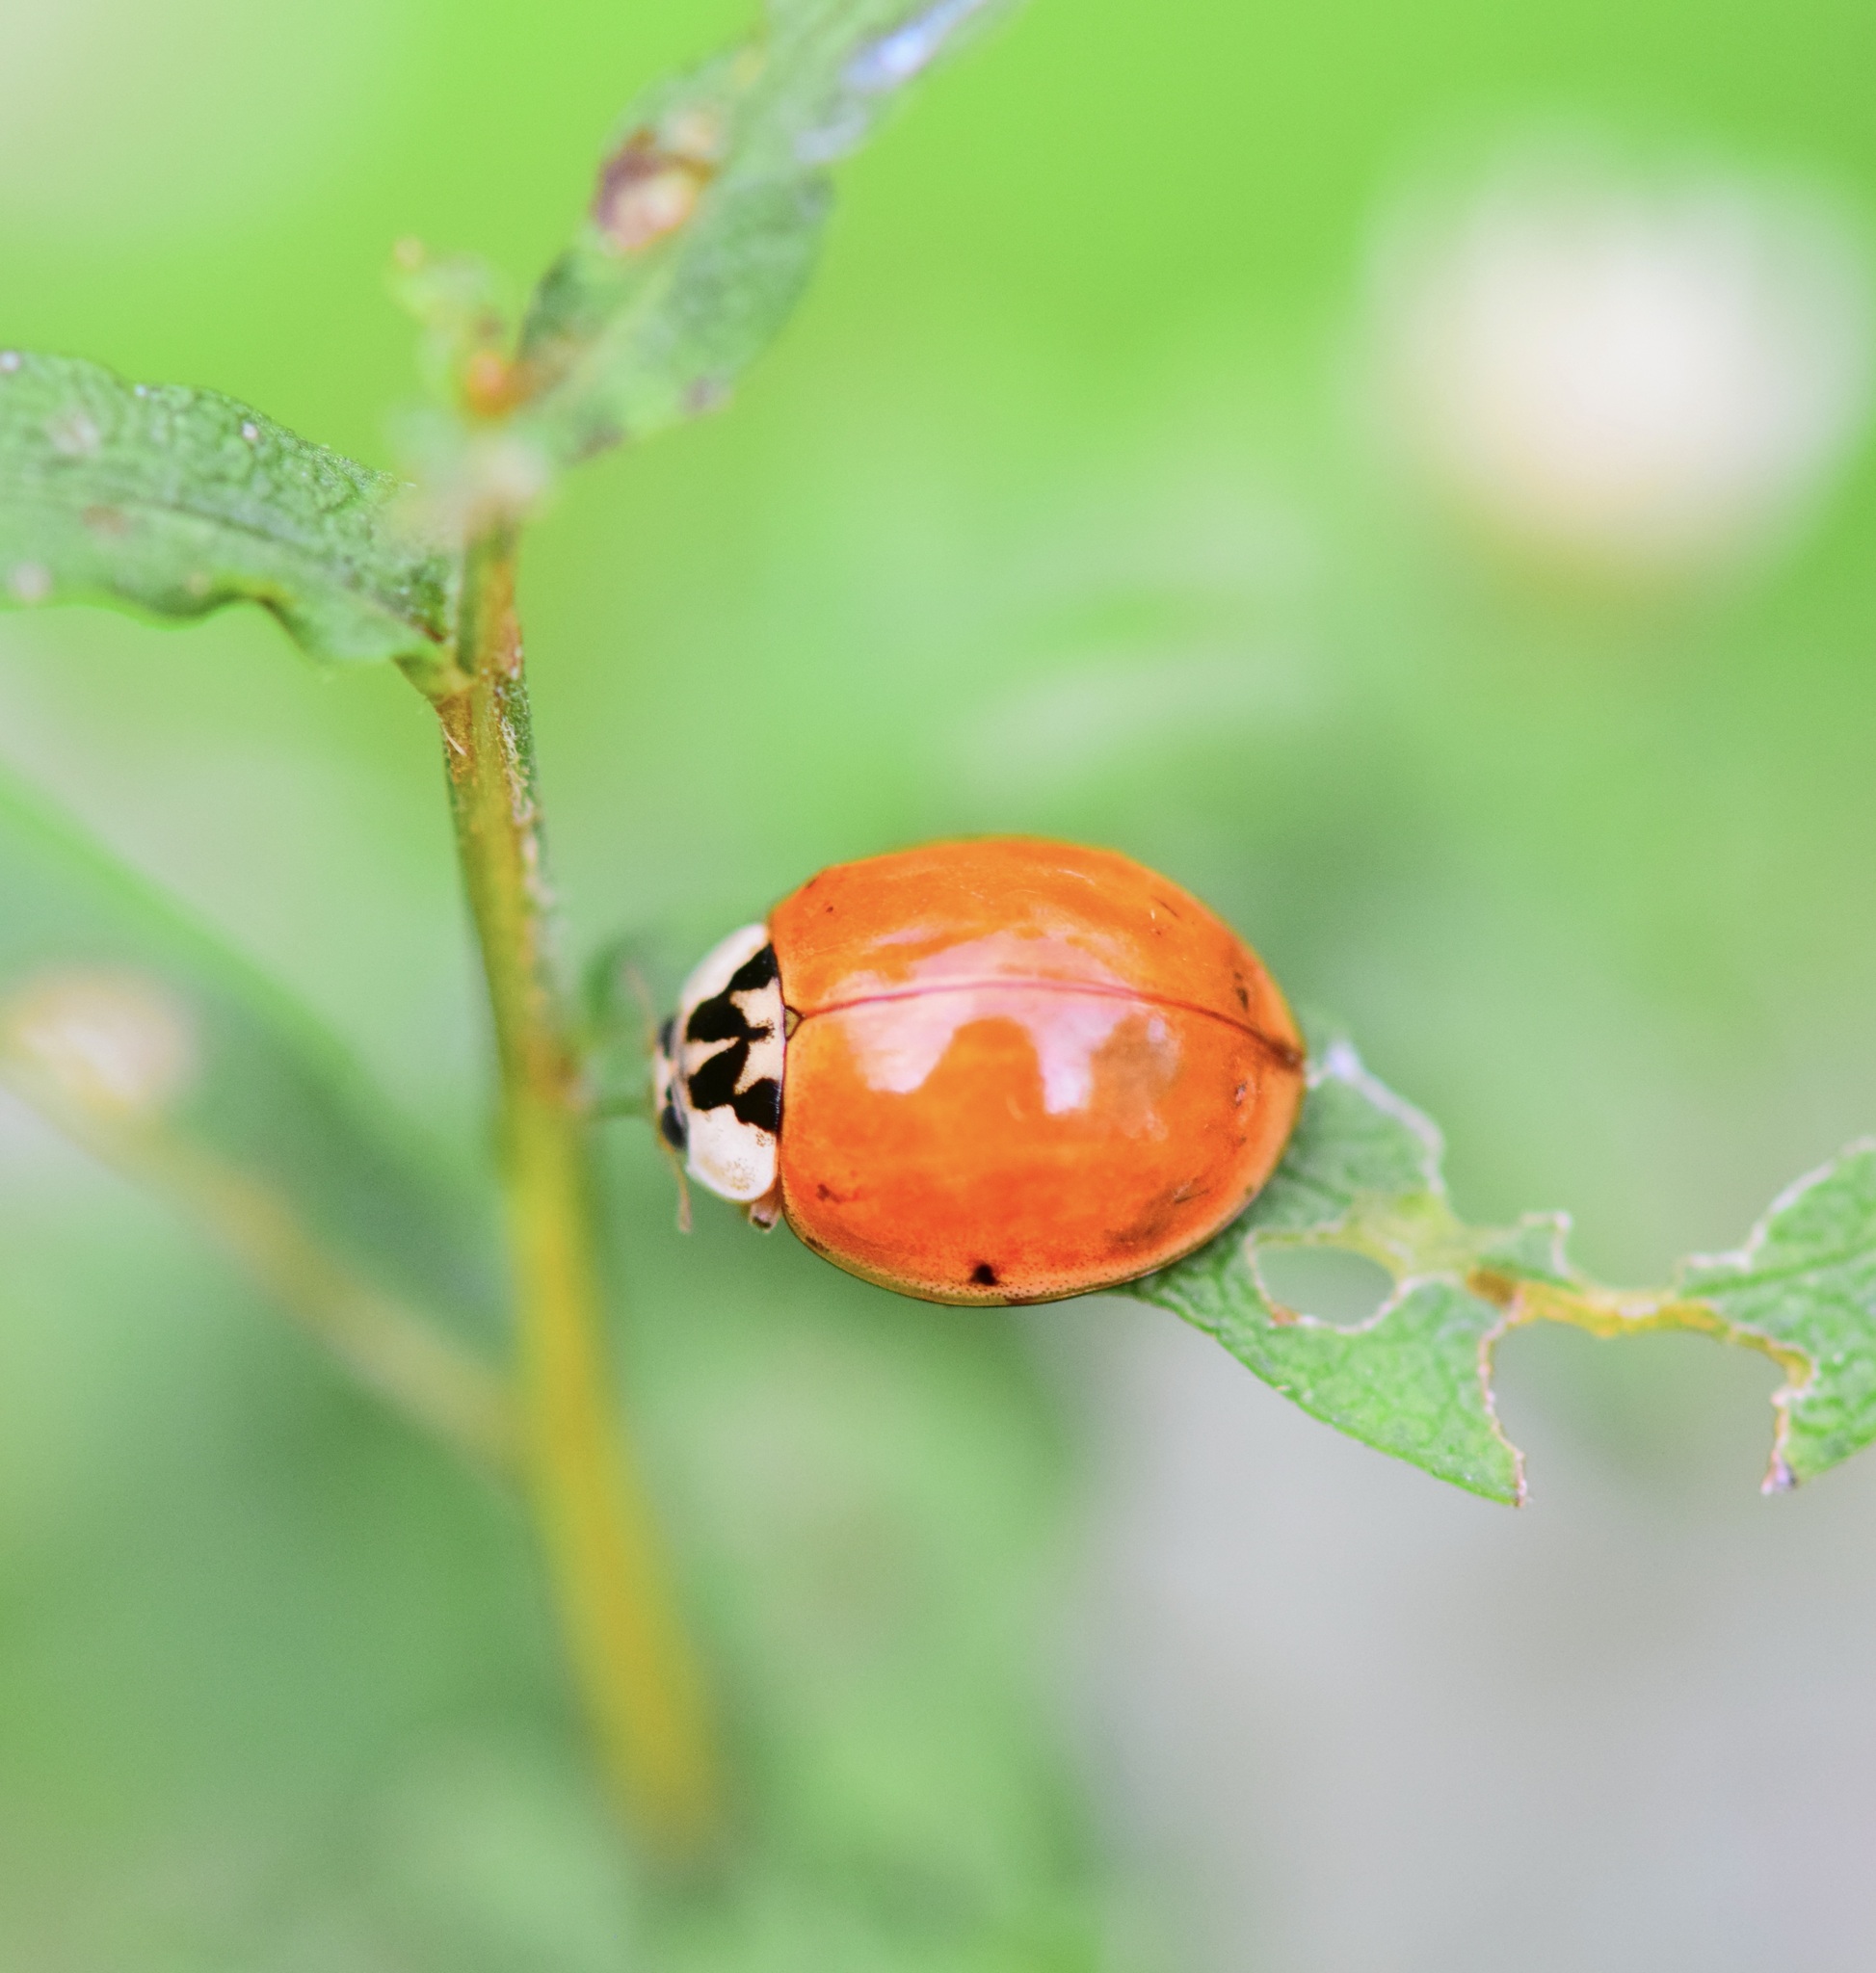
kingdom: Animalia
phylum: Arthropoda
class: Insecta
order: Coleoptera
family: Coccinellidae
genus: Harmonia
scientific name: Harmonia axyridis
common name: Harlequin ladybird
